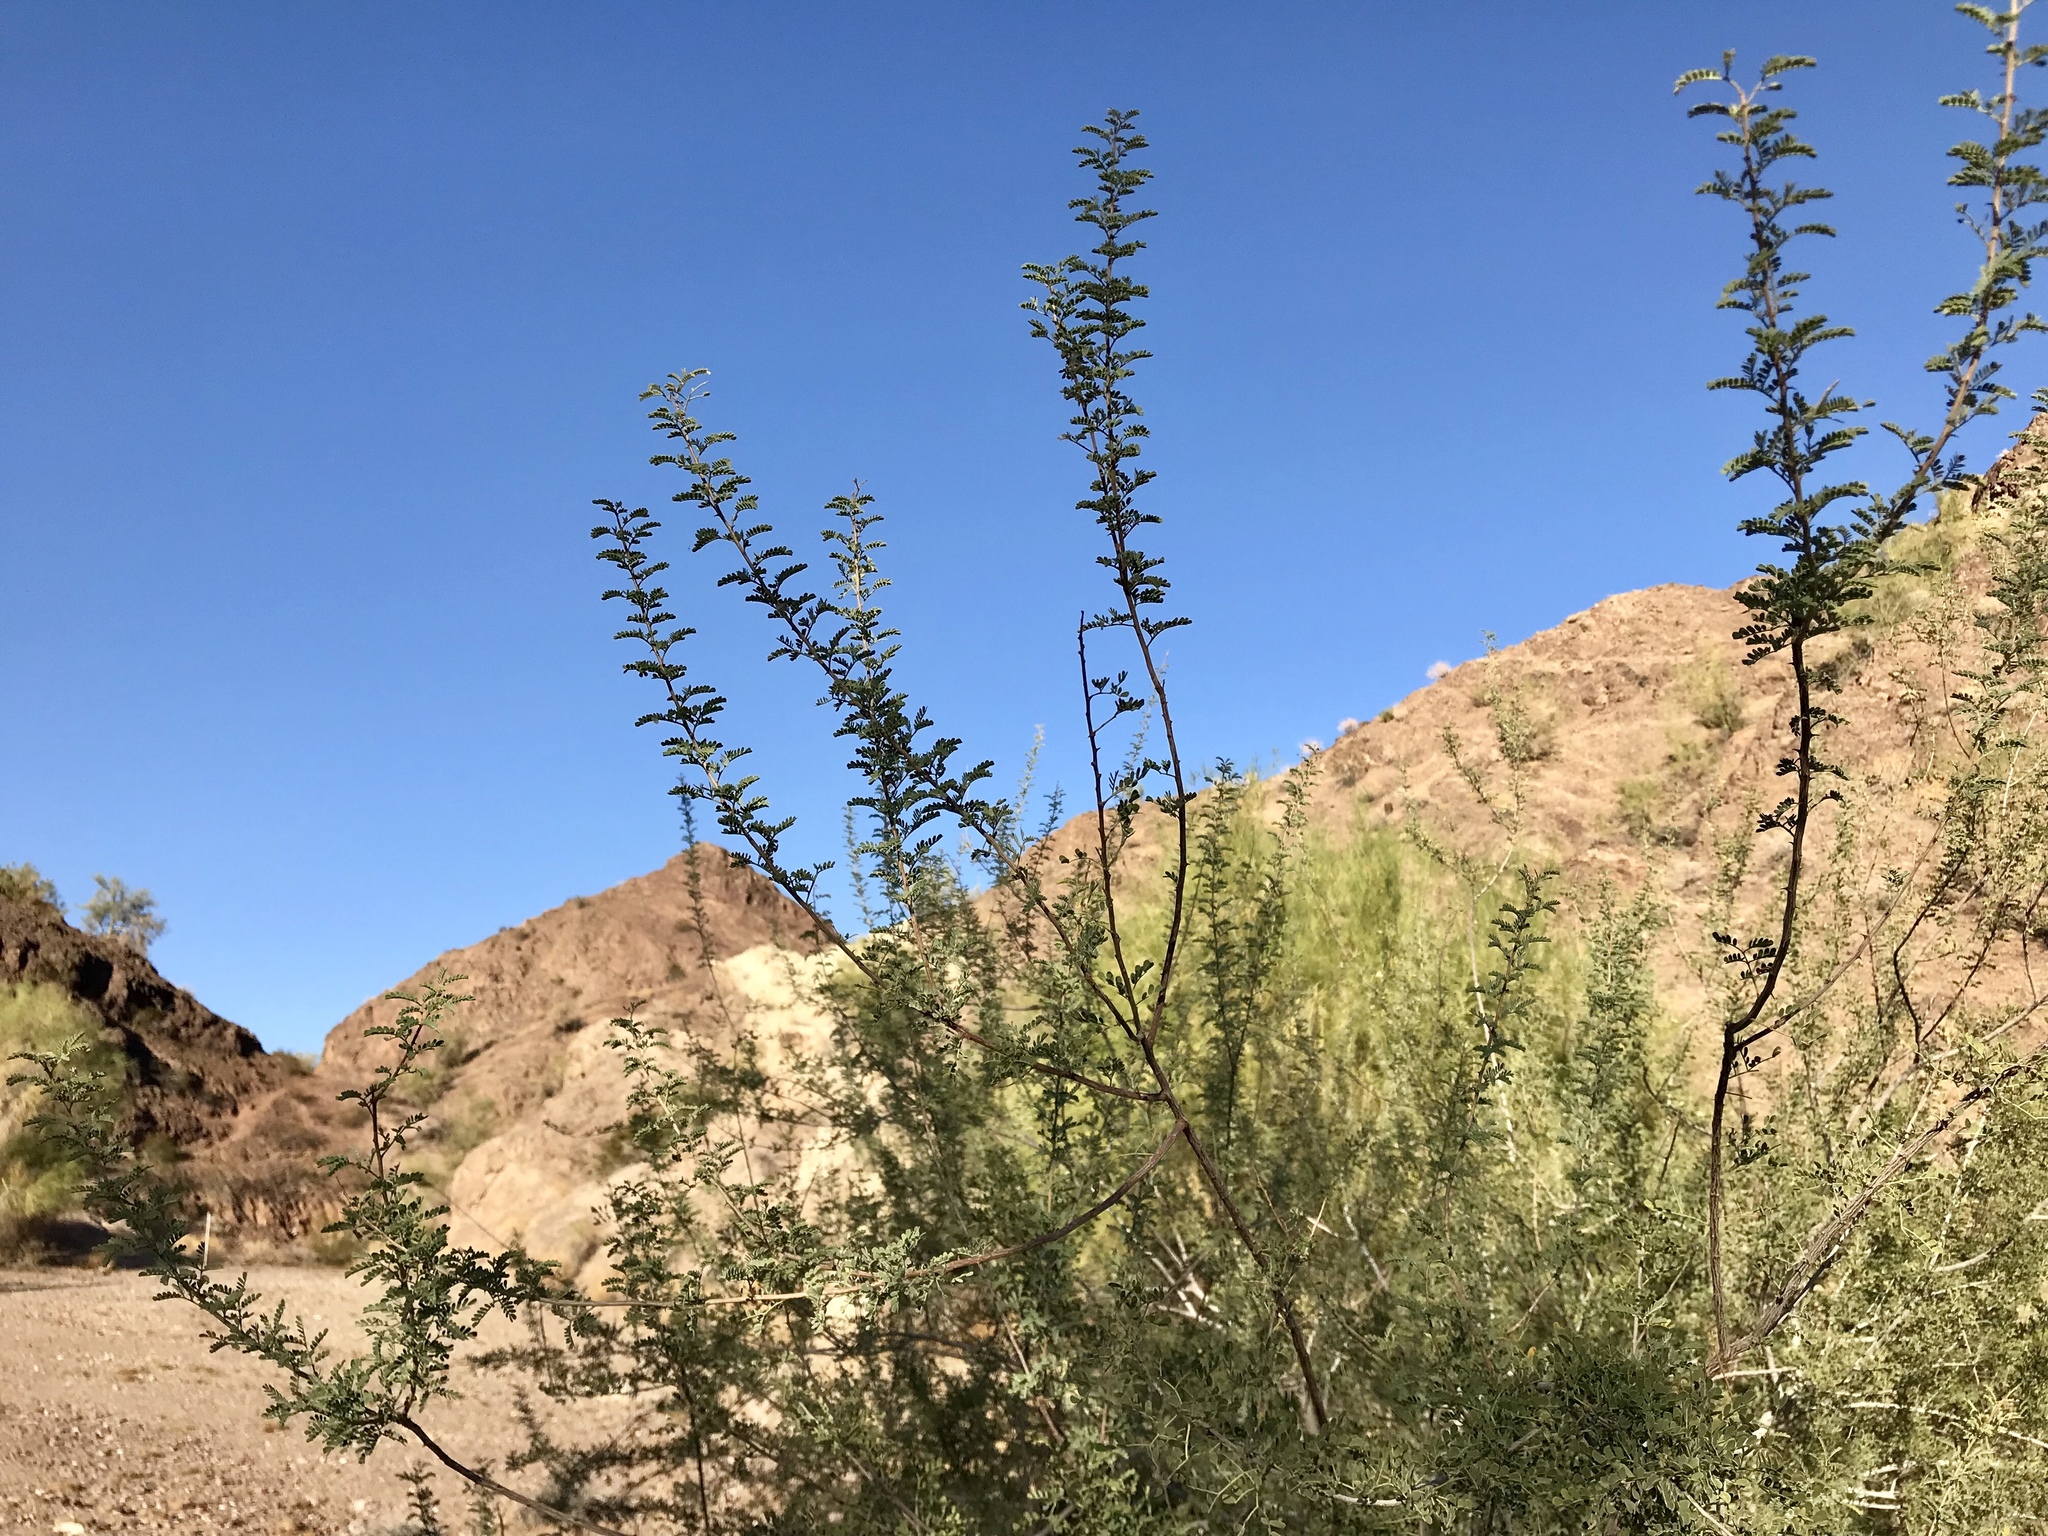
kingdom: Plantae
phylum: Tracheophyta
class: Magnoliopsida
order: Fabales
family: Fabaceae
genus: Senegalia
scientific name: Senegalia greggii
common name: Texas-mimosa
